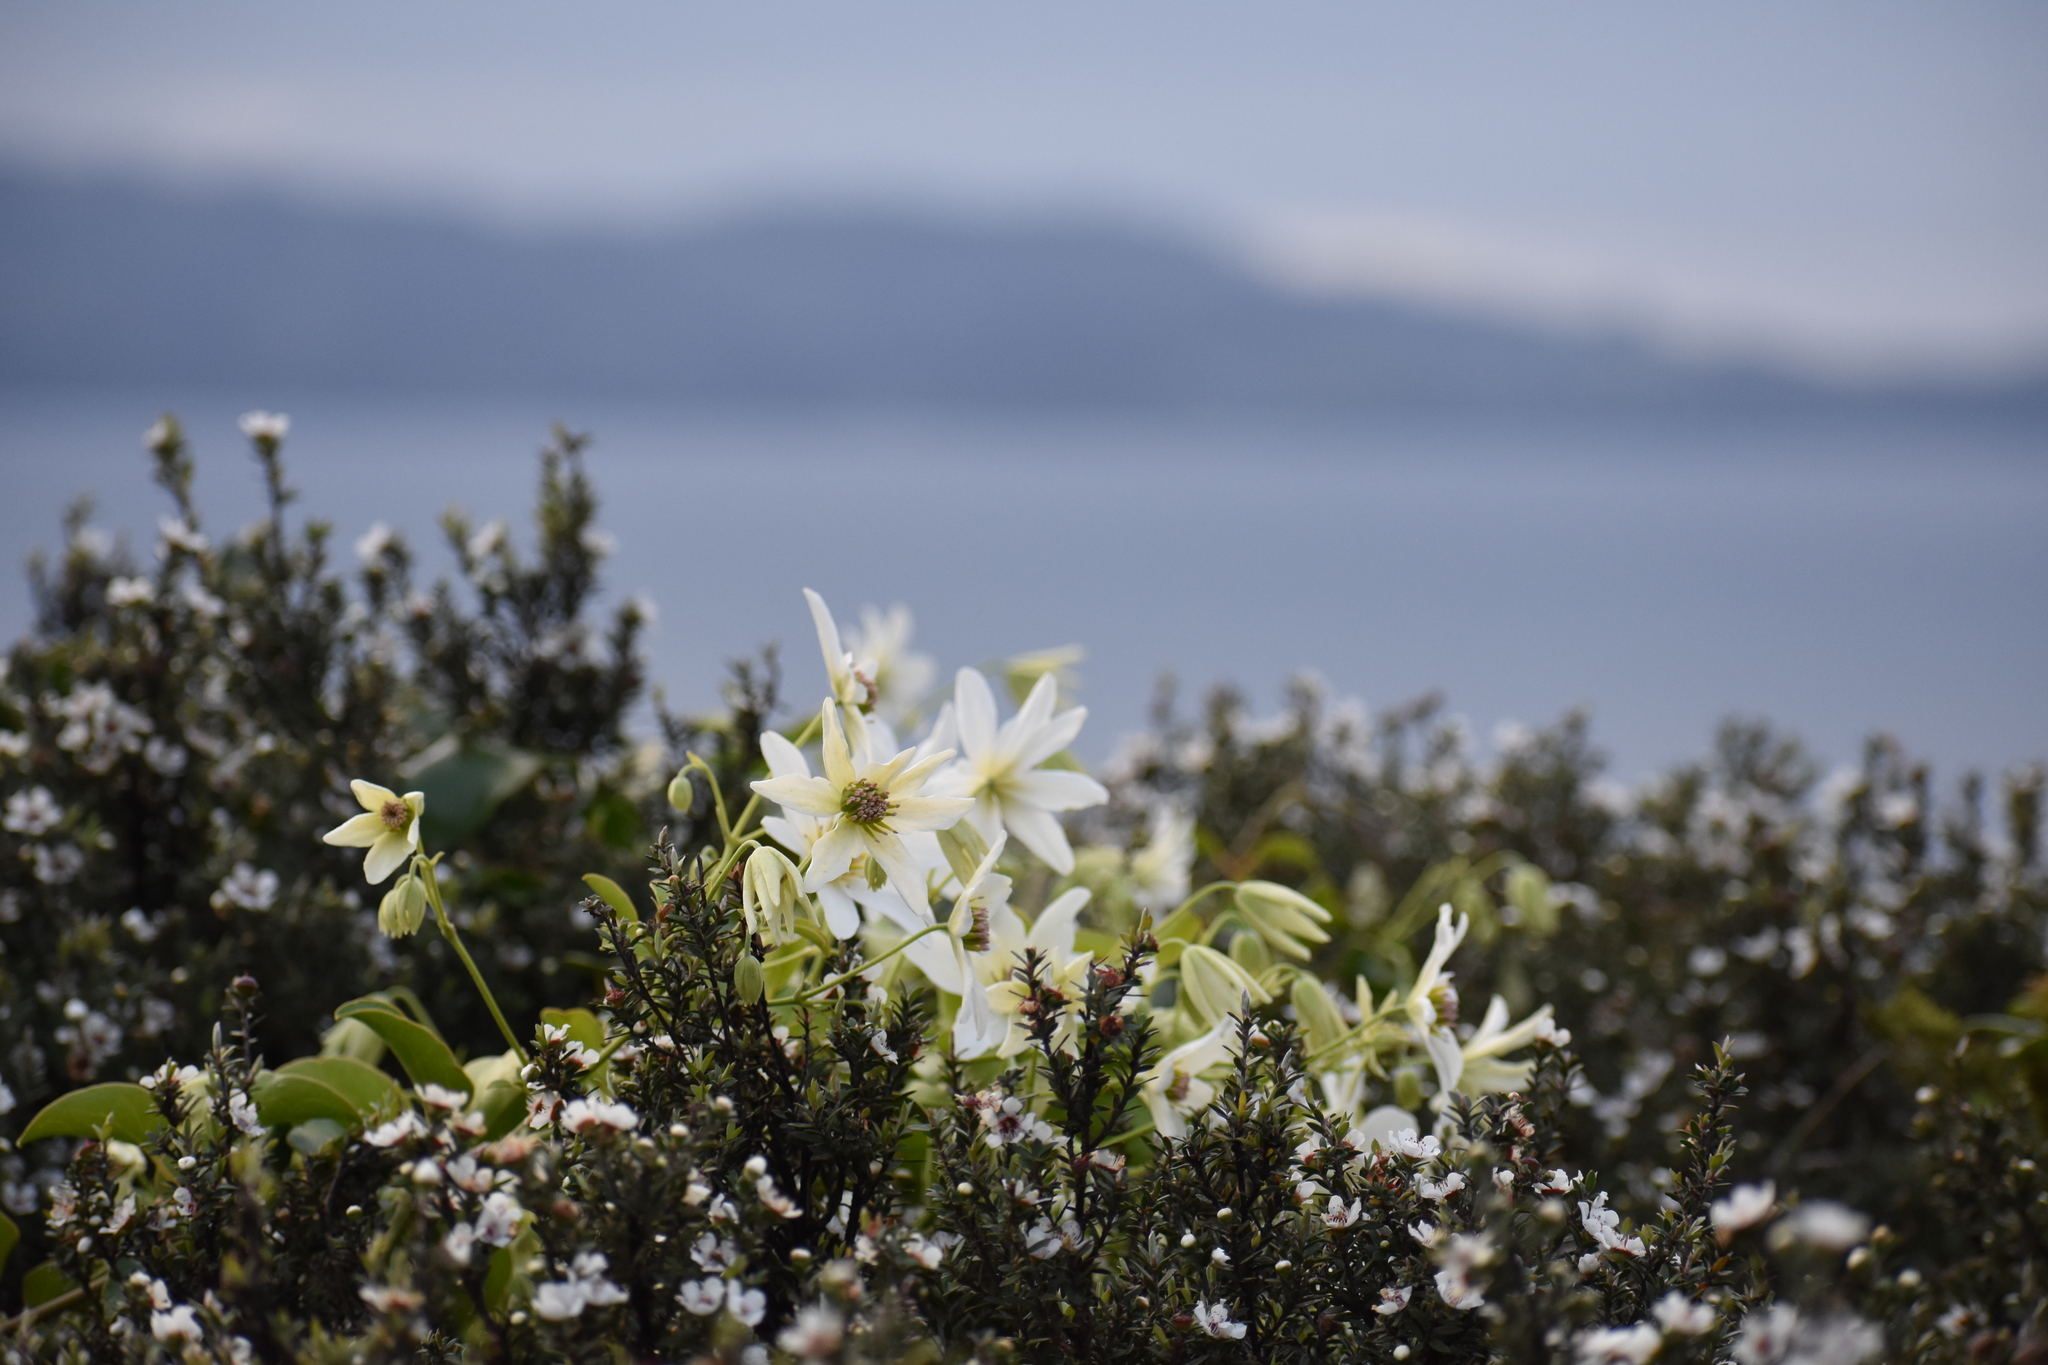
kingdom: Plantae
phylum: Tracheophyta
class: Magnoliopsida
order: Ranunculales
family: Ranunculaceae
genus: Clematis
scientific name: Clematis paniculata
